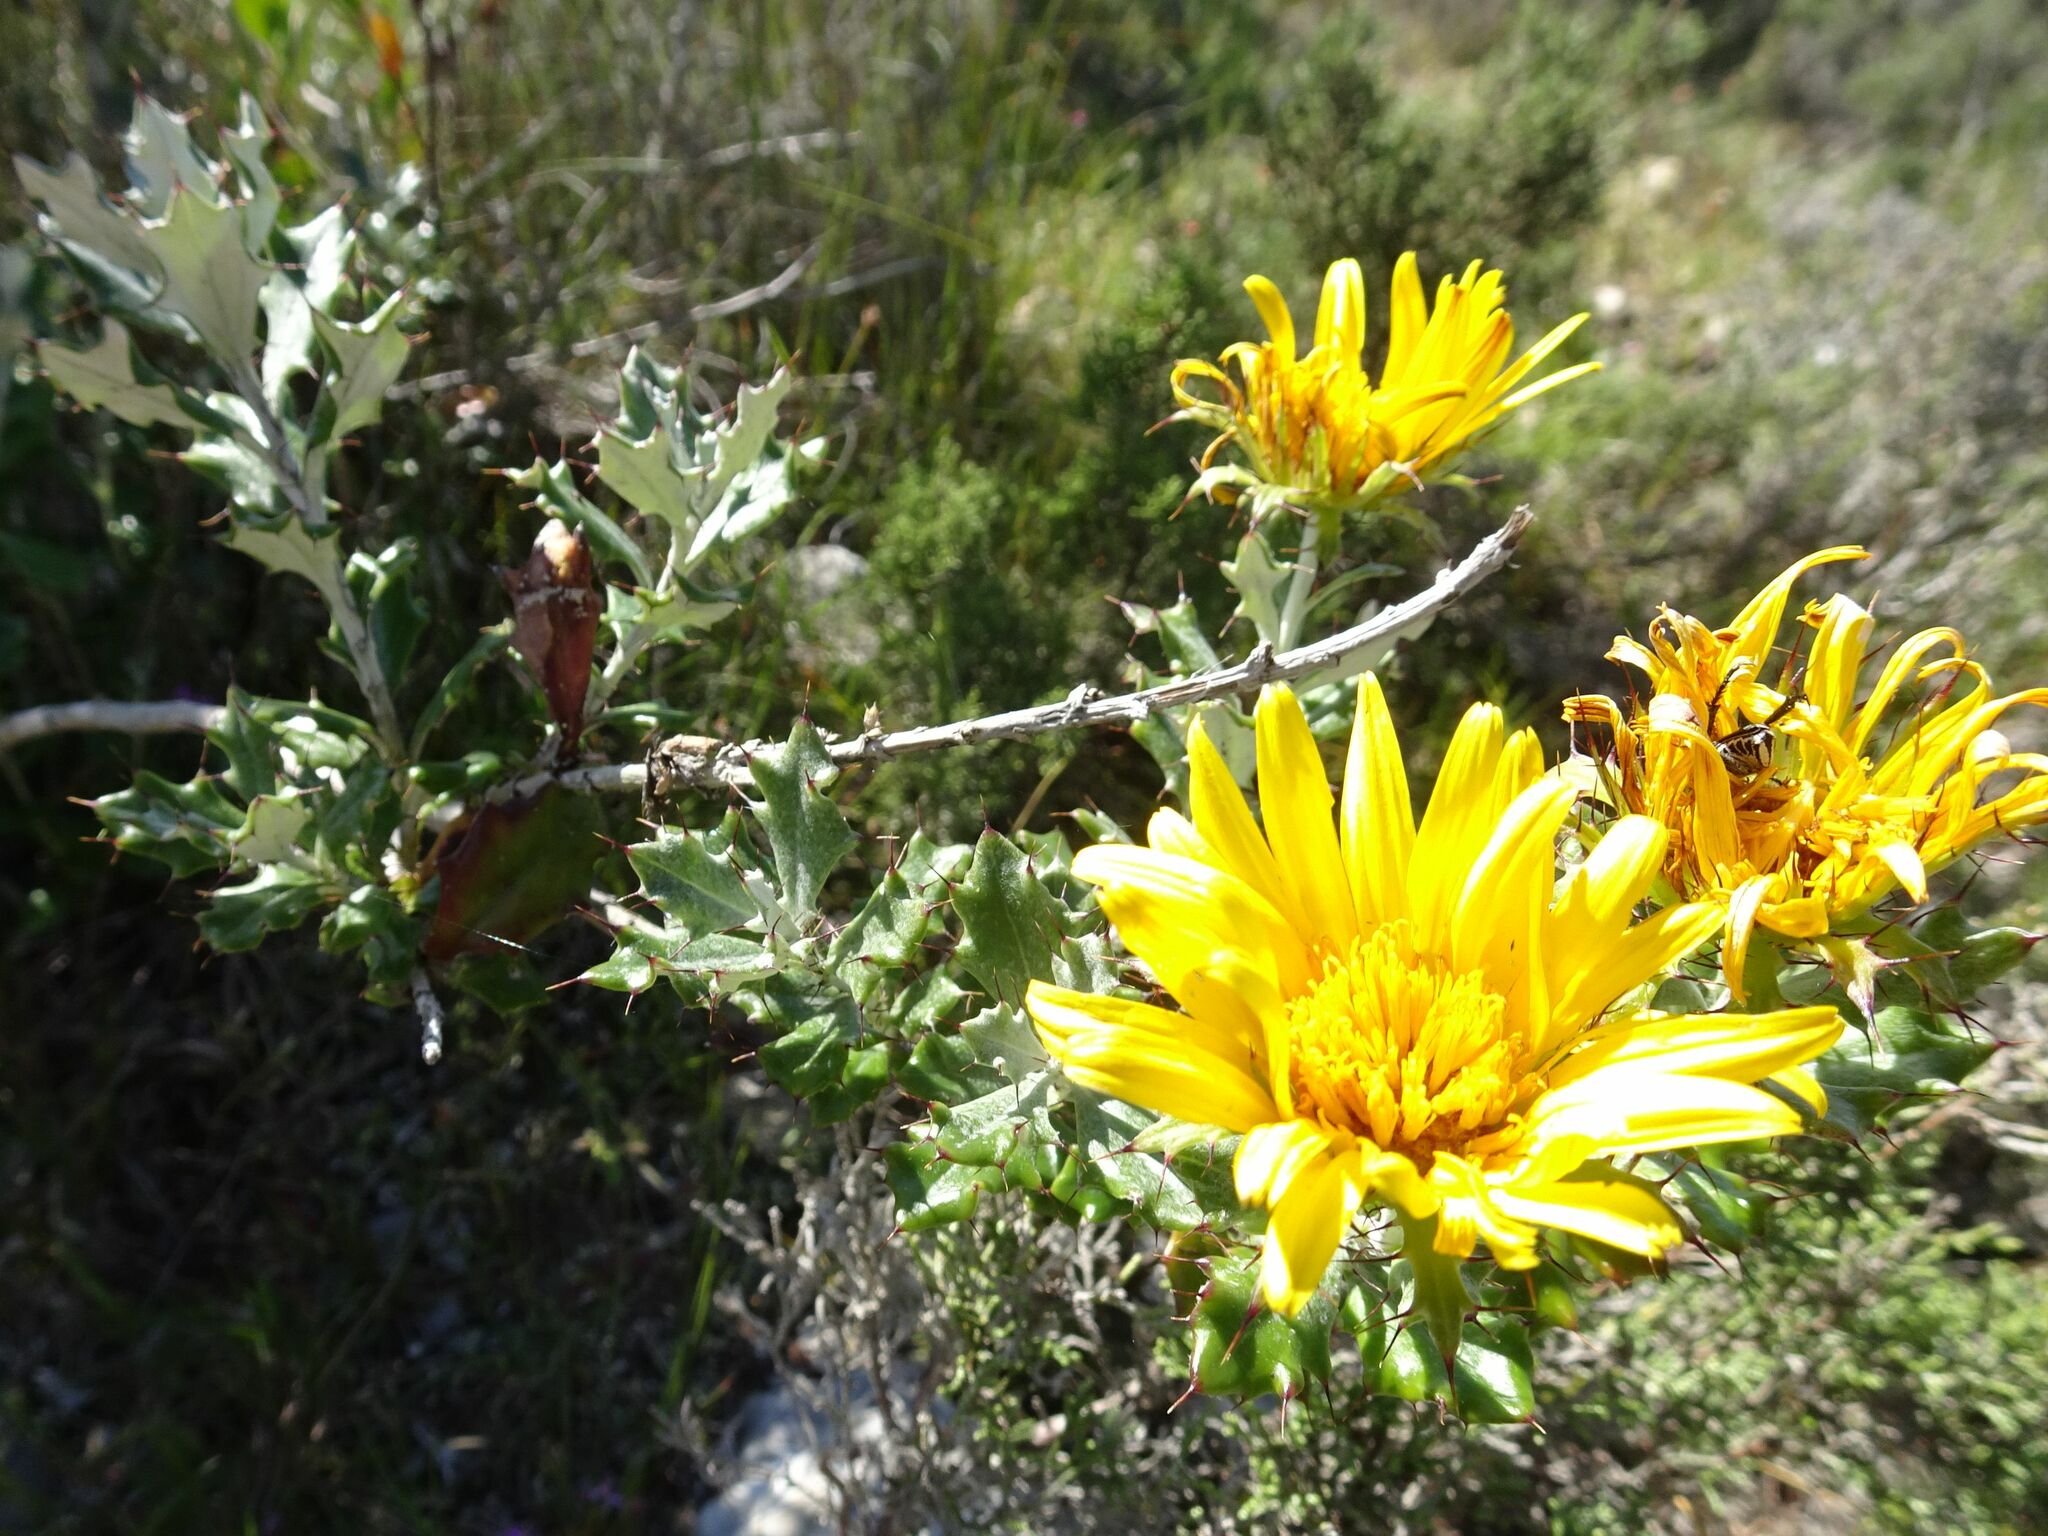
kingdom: Plantae
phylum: Tracheophyta
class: Magnoliopsida
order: Asterales
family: Asteraceae
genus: Berkheya
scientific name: Berkheya coriacea
